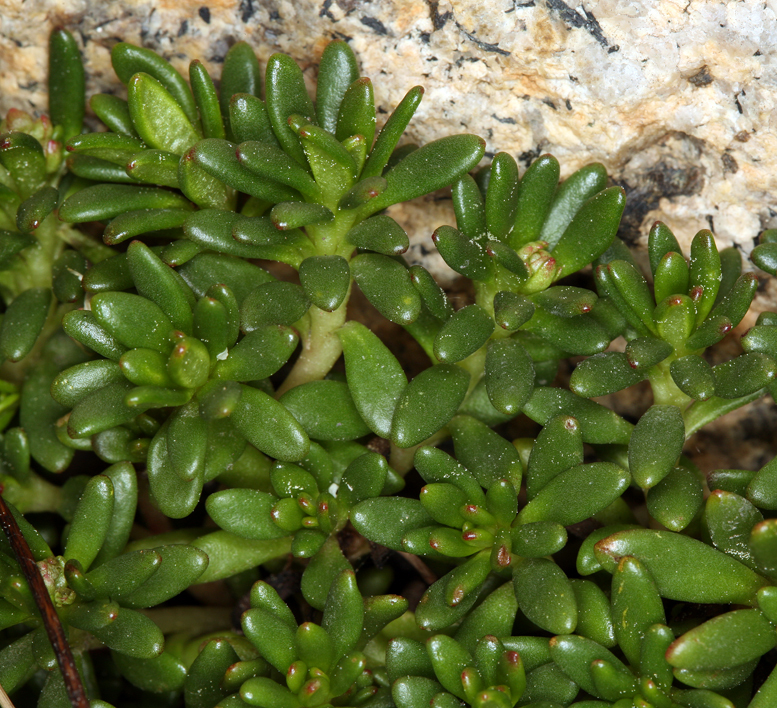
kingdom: Plantae
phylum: Tracheophyta
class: Magnoliopsida
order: Saxifragales
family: Saxifragaceae
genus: Micranthes
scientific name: Micranthes tolmiei
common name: Tolmie's saxifrage
